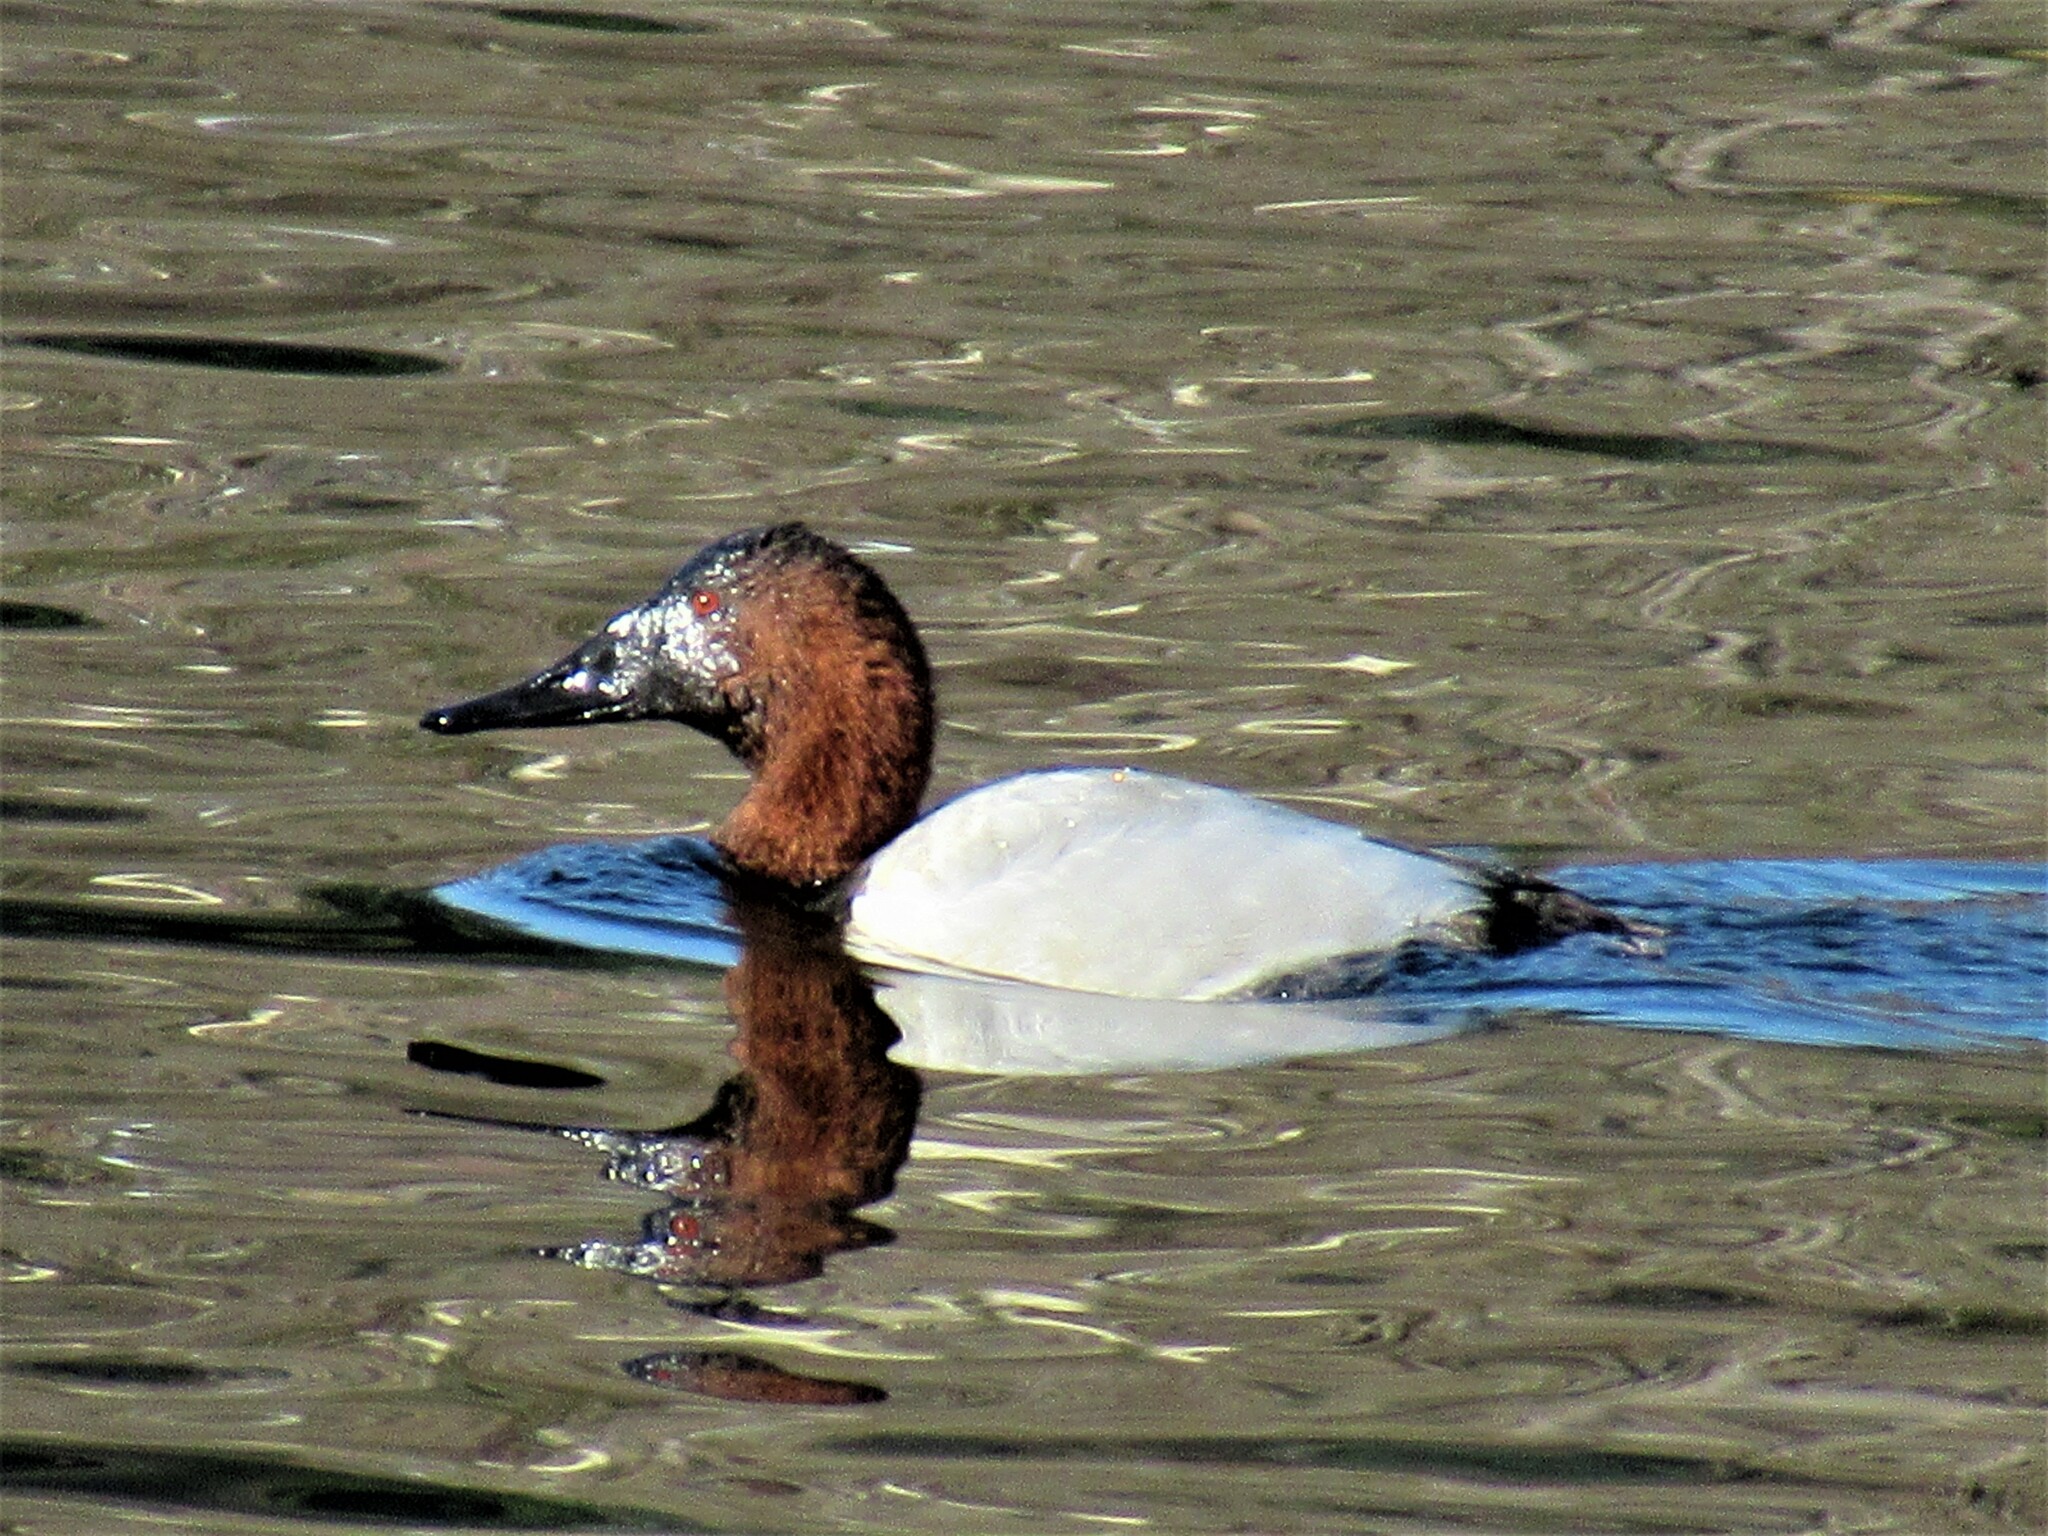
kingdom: Animalia
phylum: Chordata
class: Aves
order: Anseriformes
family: Anatidae
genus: Aythya
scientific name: Aythya valisineria
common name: Canvasback
